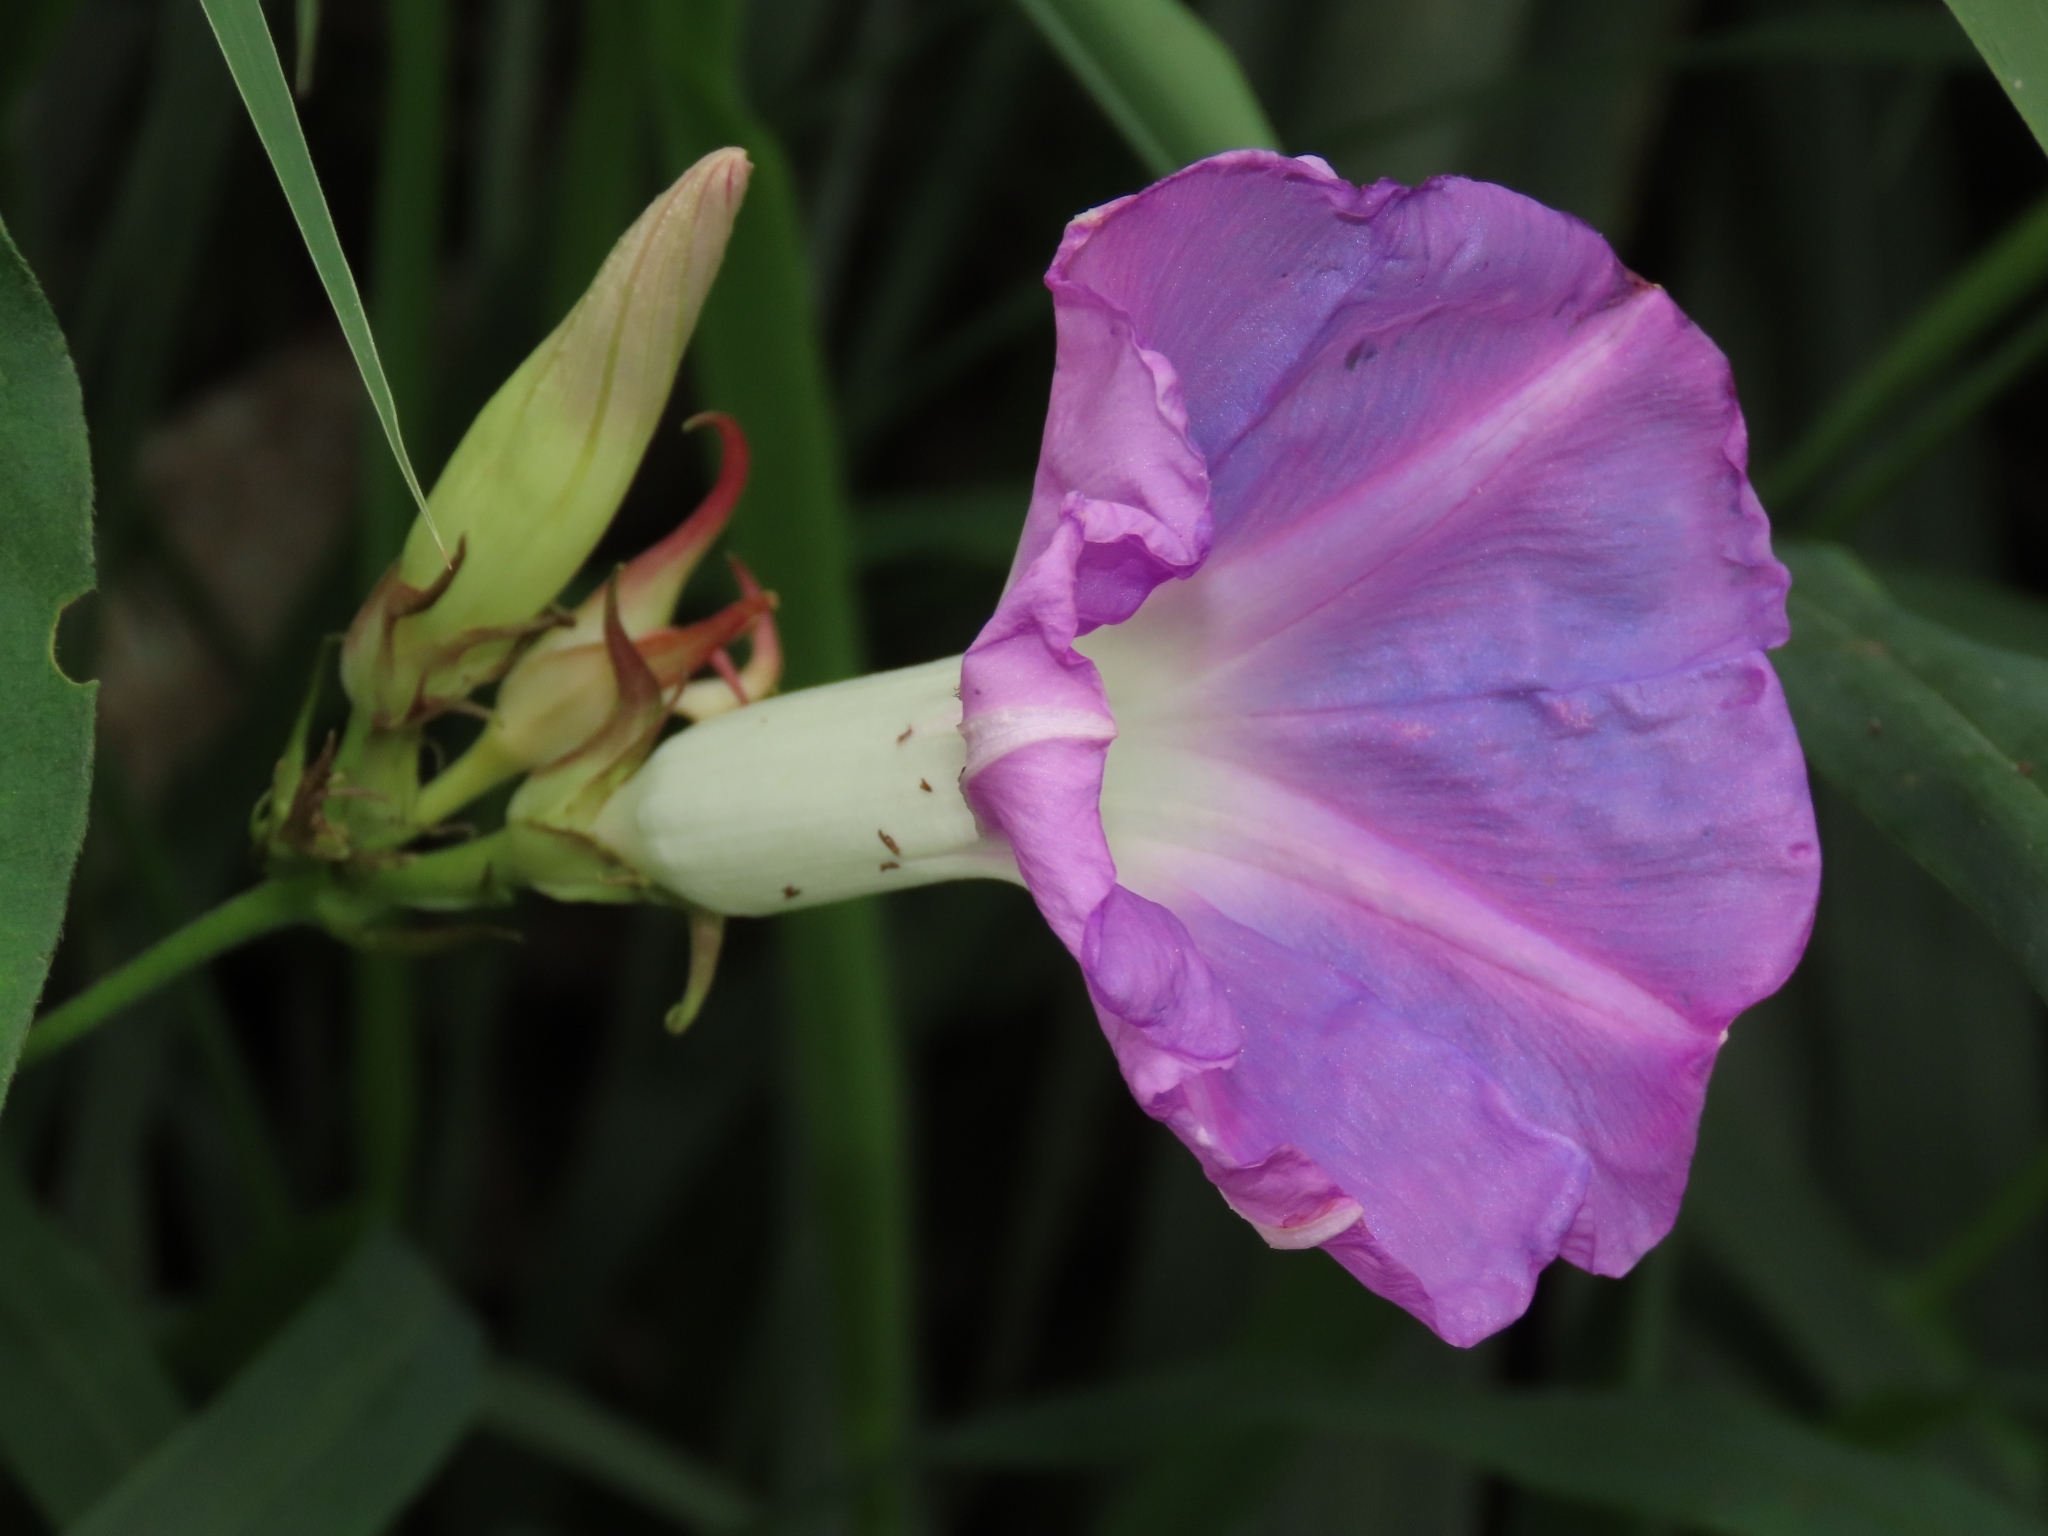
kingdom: Plantae
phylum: Tracheophyta
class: Magnoliopsida
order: Solanales
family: Convolvulaceae
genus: Ipomoea
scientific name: Ipomoea indica
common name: Blue dawnflower
